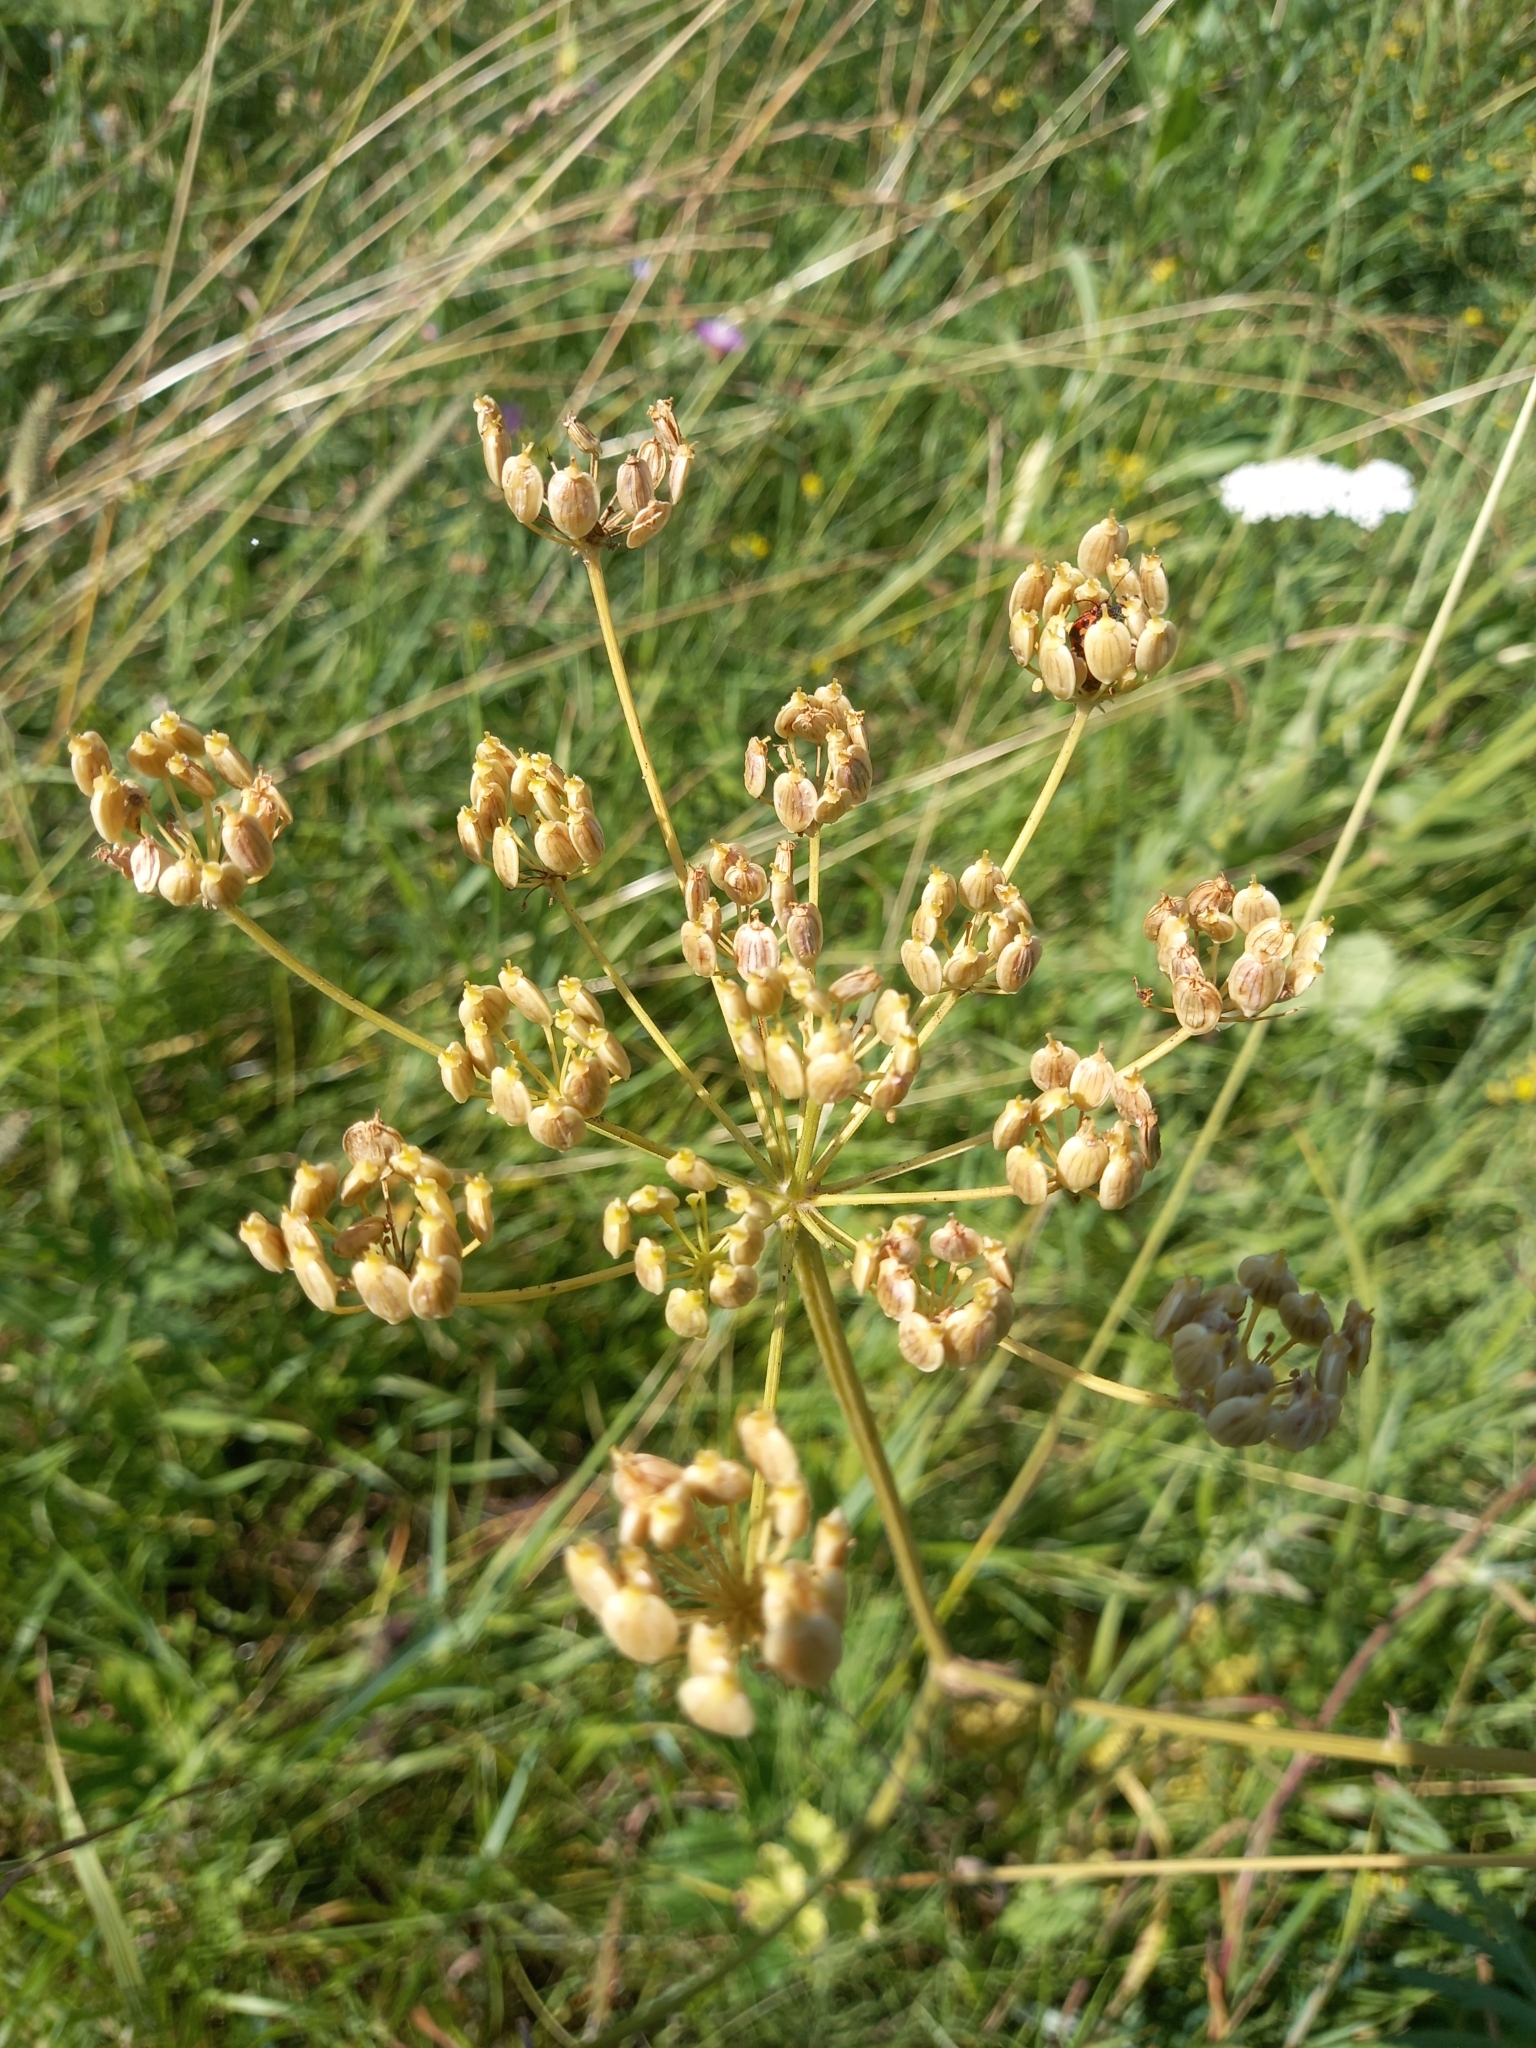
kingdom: Plantae
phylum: Tracheophyta
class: Magnoliopsida
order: Apiales
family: Apiaceae
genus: Heracleum
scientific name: Heracleum sphondylium
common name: Hogweed
